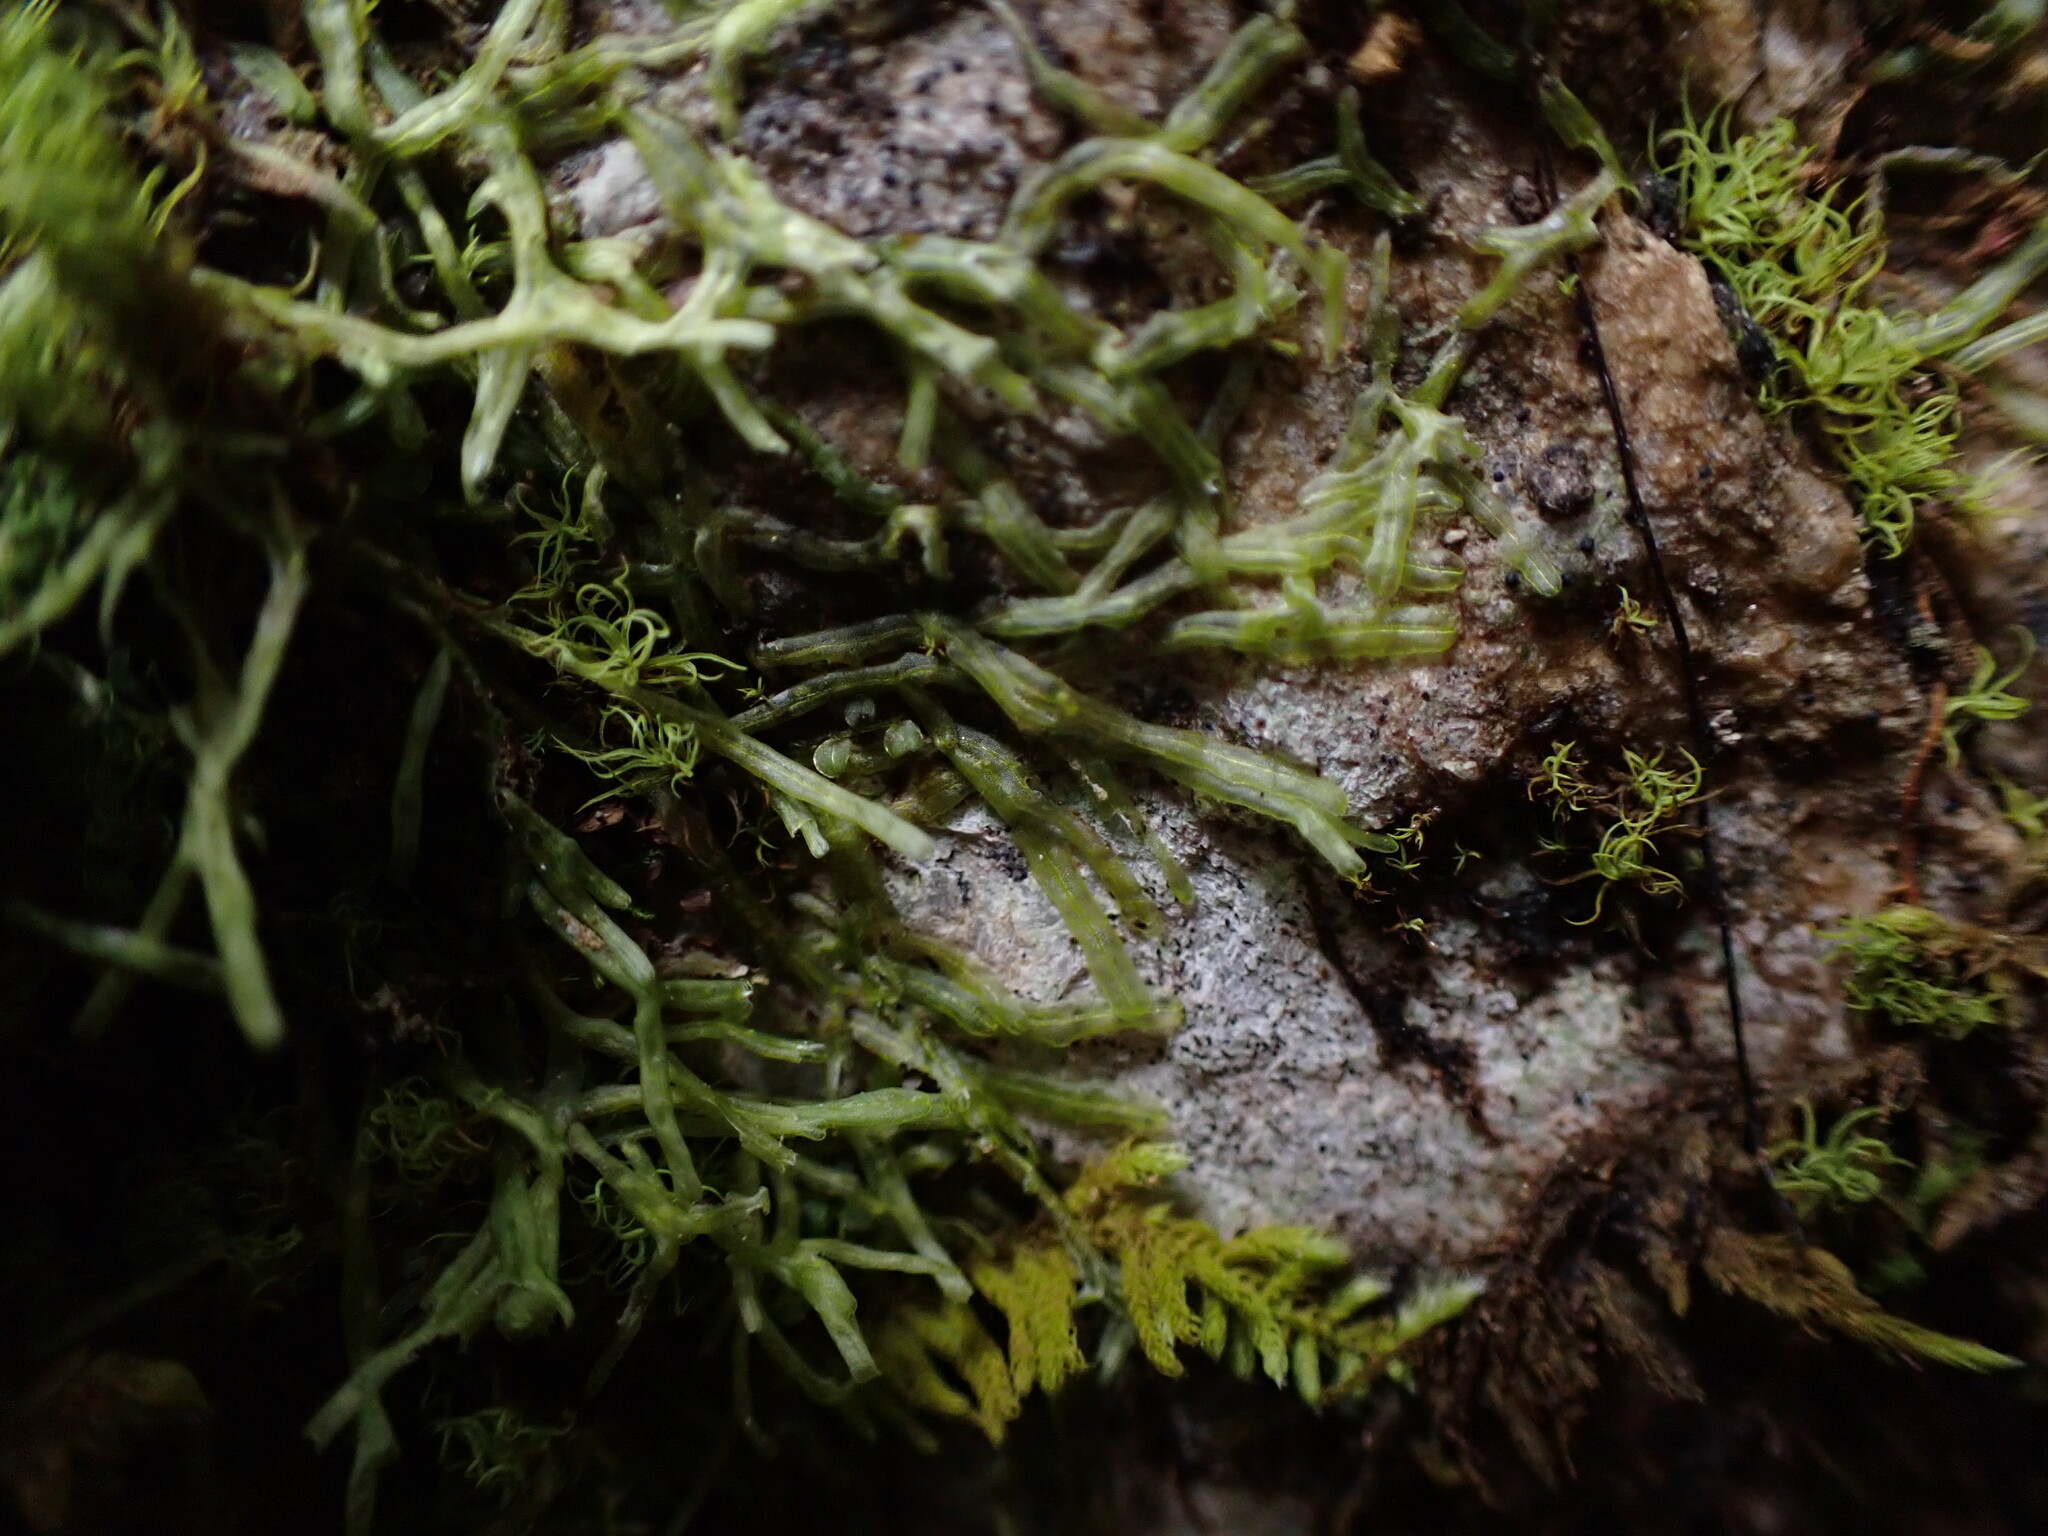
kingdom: Plantae
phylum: Marchantiophyta
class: Jungermanniopsida
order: Metzgeriales
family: Metzgeriaceae
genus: Metzgeria
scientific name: Metzgeria conjugata
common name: Rock veilwort
